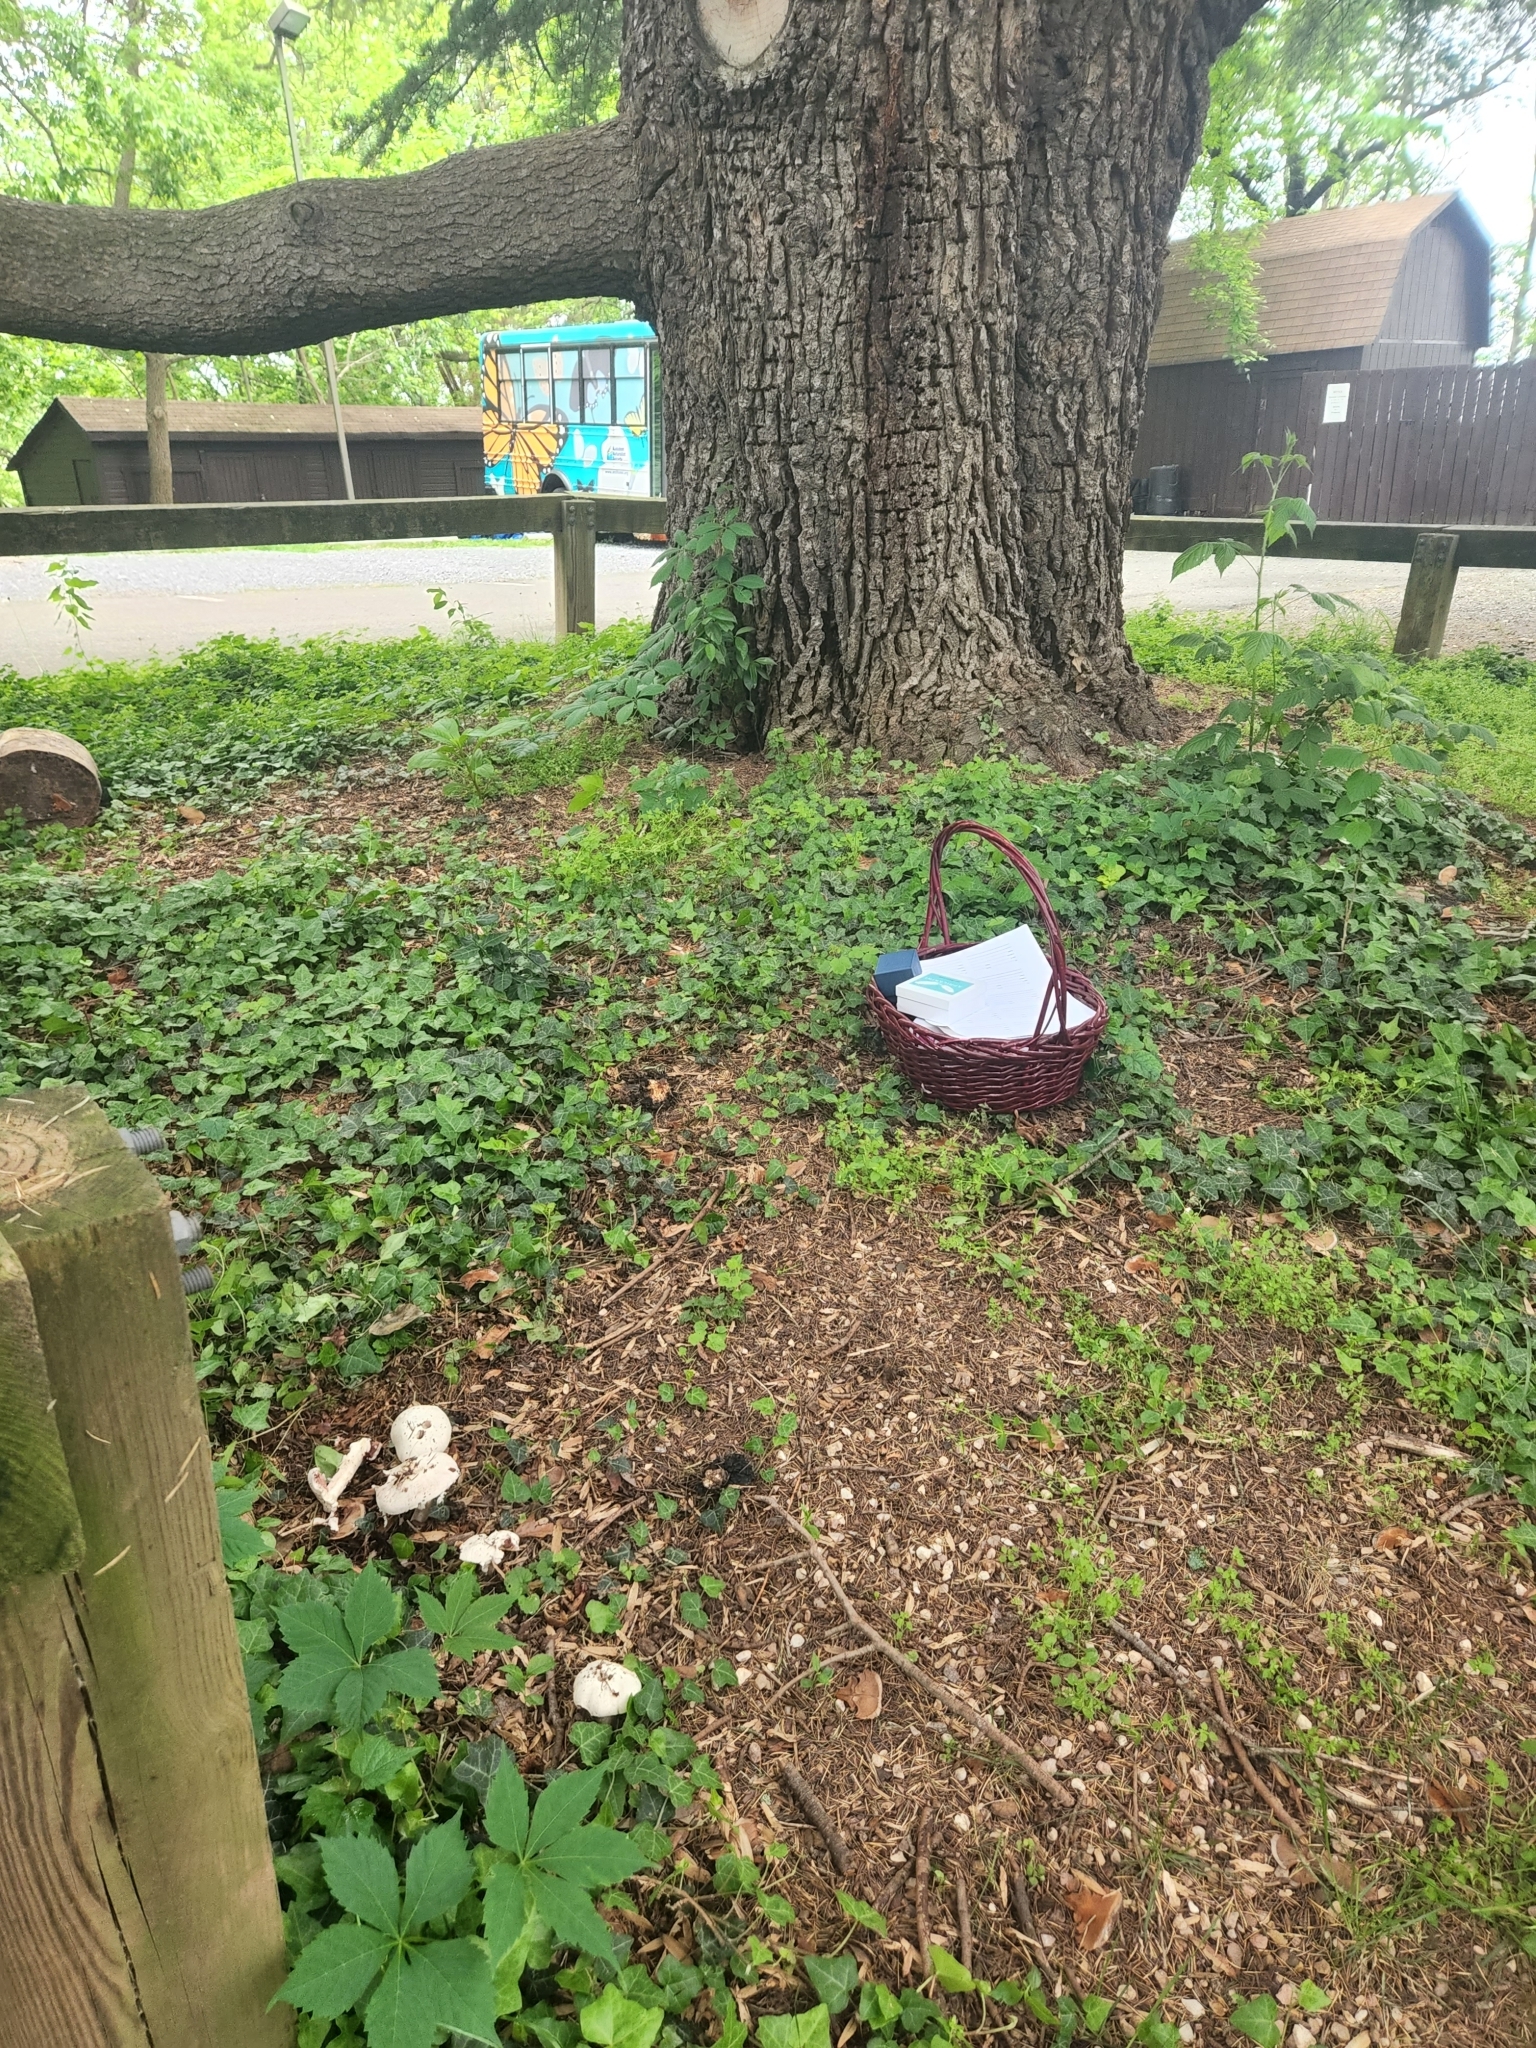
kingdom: Fungi
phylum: Basidiomycota
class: Agaricomycetes
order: Agaricales
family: Agaricaceae
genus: Agaricus
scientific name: Agaricus griseicephalus
